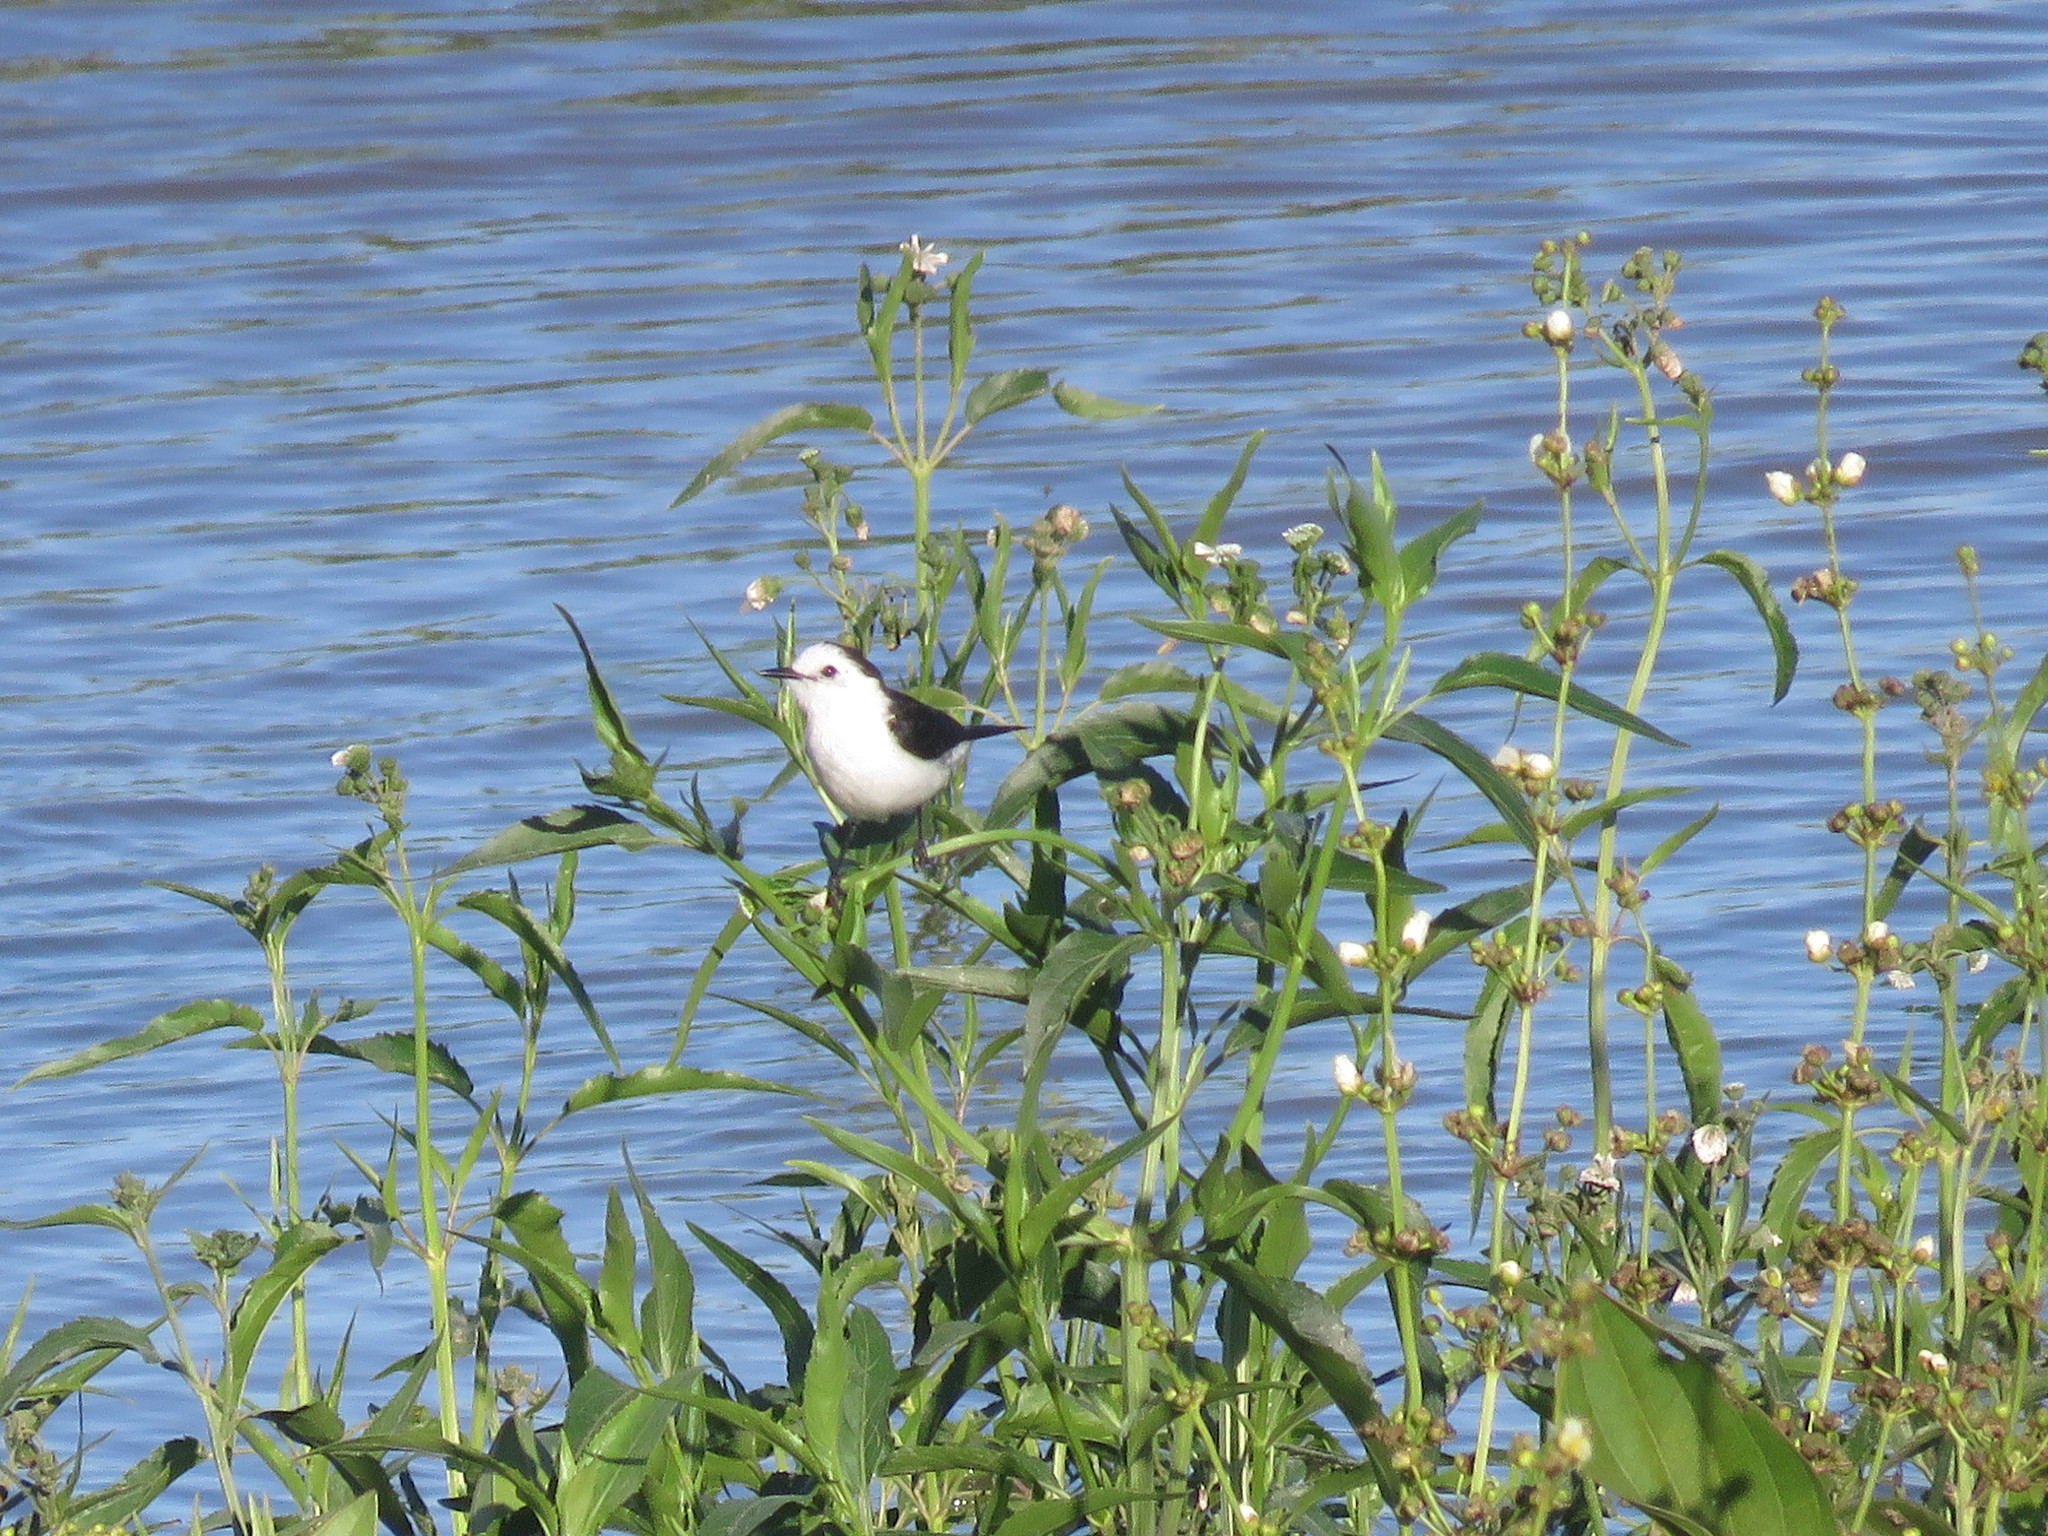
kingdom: Animalia
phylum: Chordata
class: Aves
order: Passeriformes
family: Tyrannidae
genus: Fluvicola
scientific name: Fluvicola pica
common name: Pied water-tyrant
